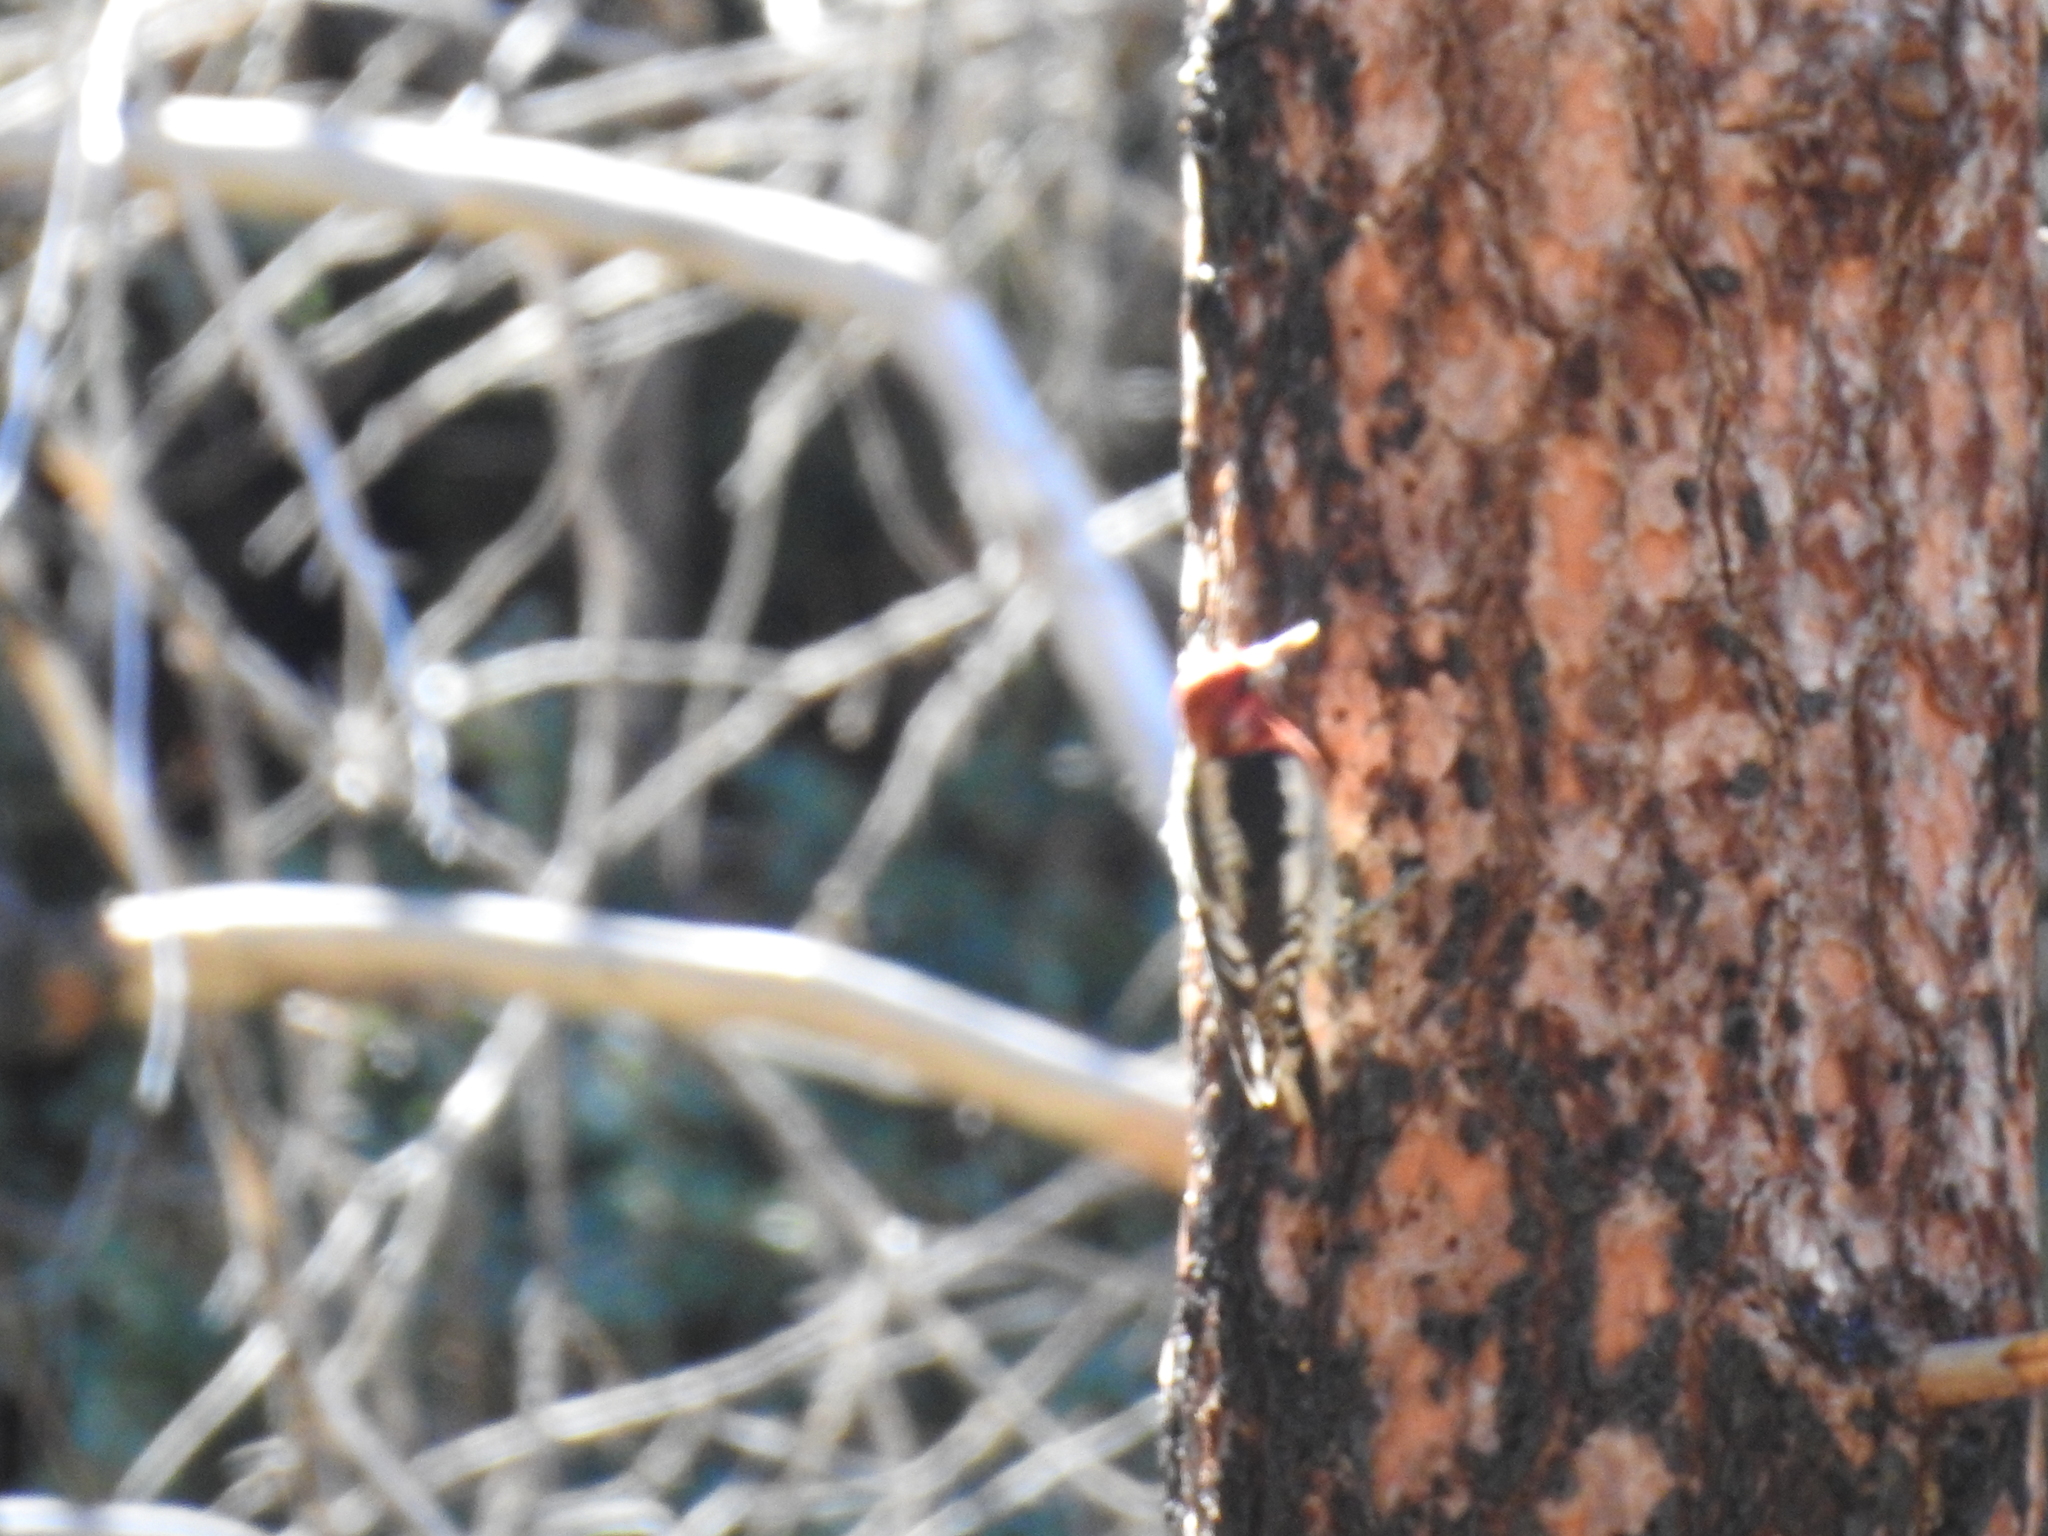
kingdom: Animalia
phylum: Chordata
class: Aves
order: Piciformes
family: Picidae
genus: Sphyrapicus
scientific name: Sphyrapicus ruber
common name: Red-breasted sapsucker
